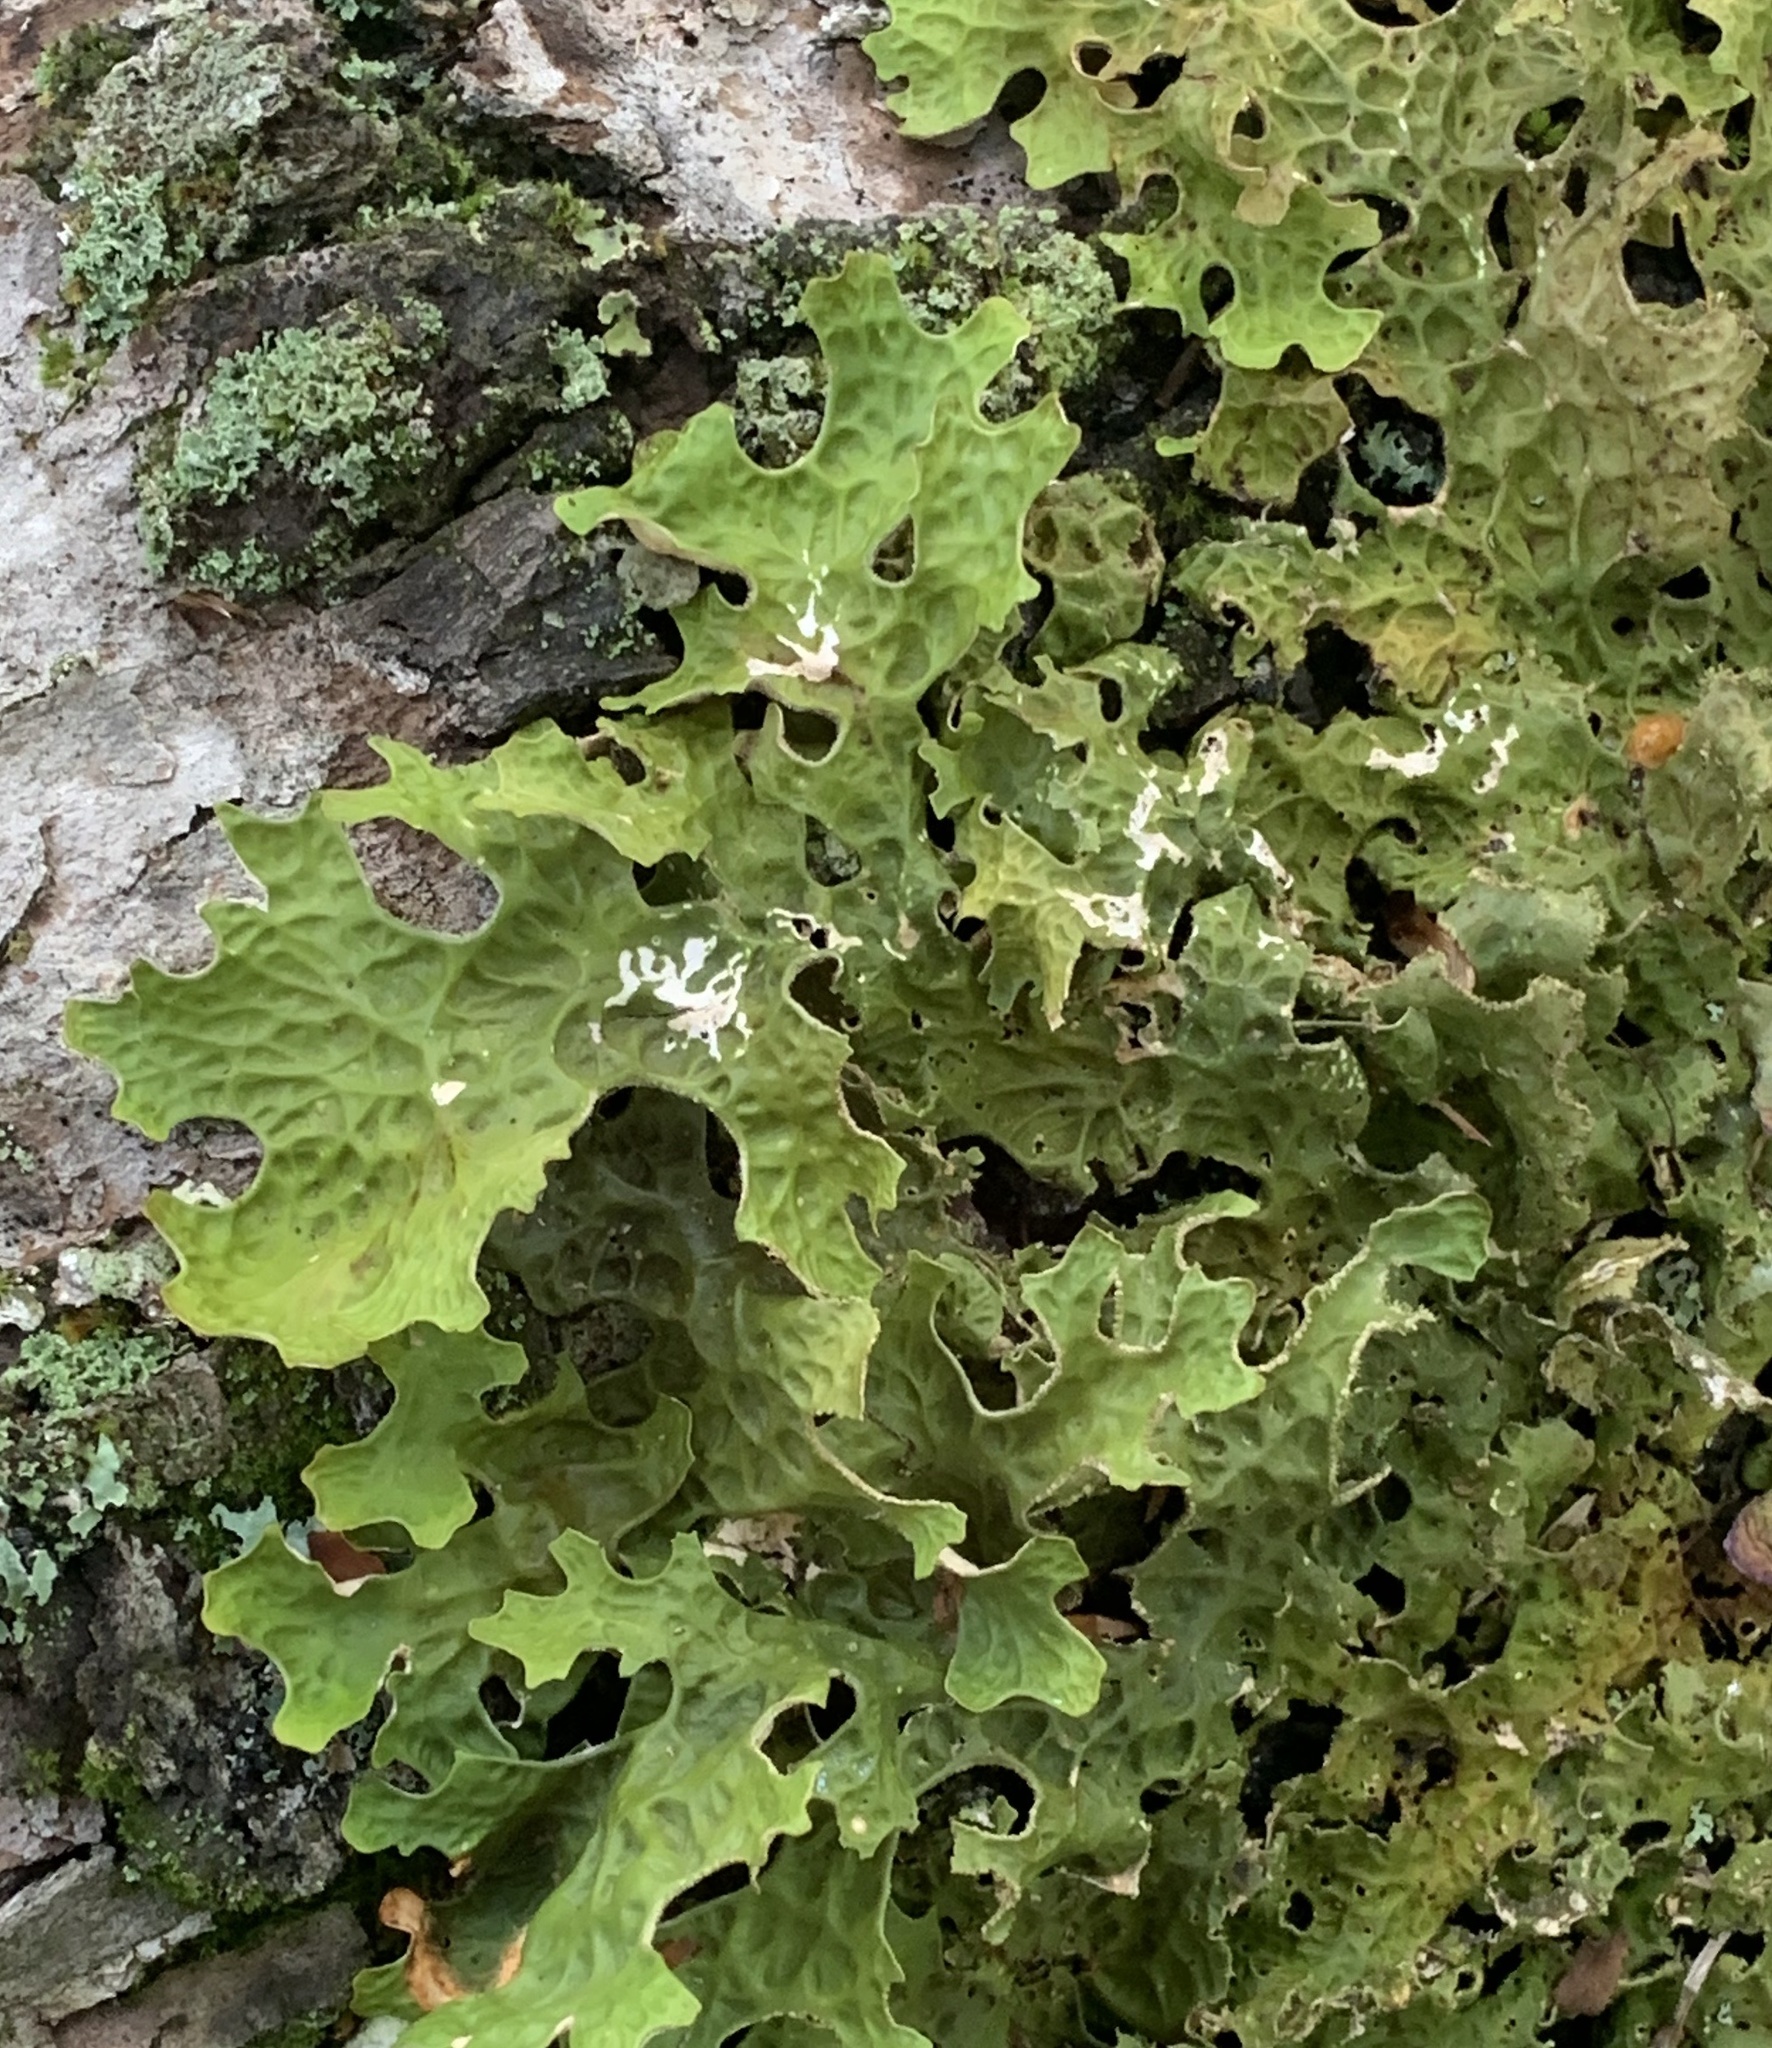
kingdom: Fungi
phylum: Ascomycota
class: Lecanoromycetes
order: Peltigerales
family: Lobariaceae
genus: Lobaria
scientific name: Lobaria pulmonaria
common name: Lungwort
